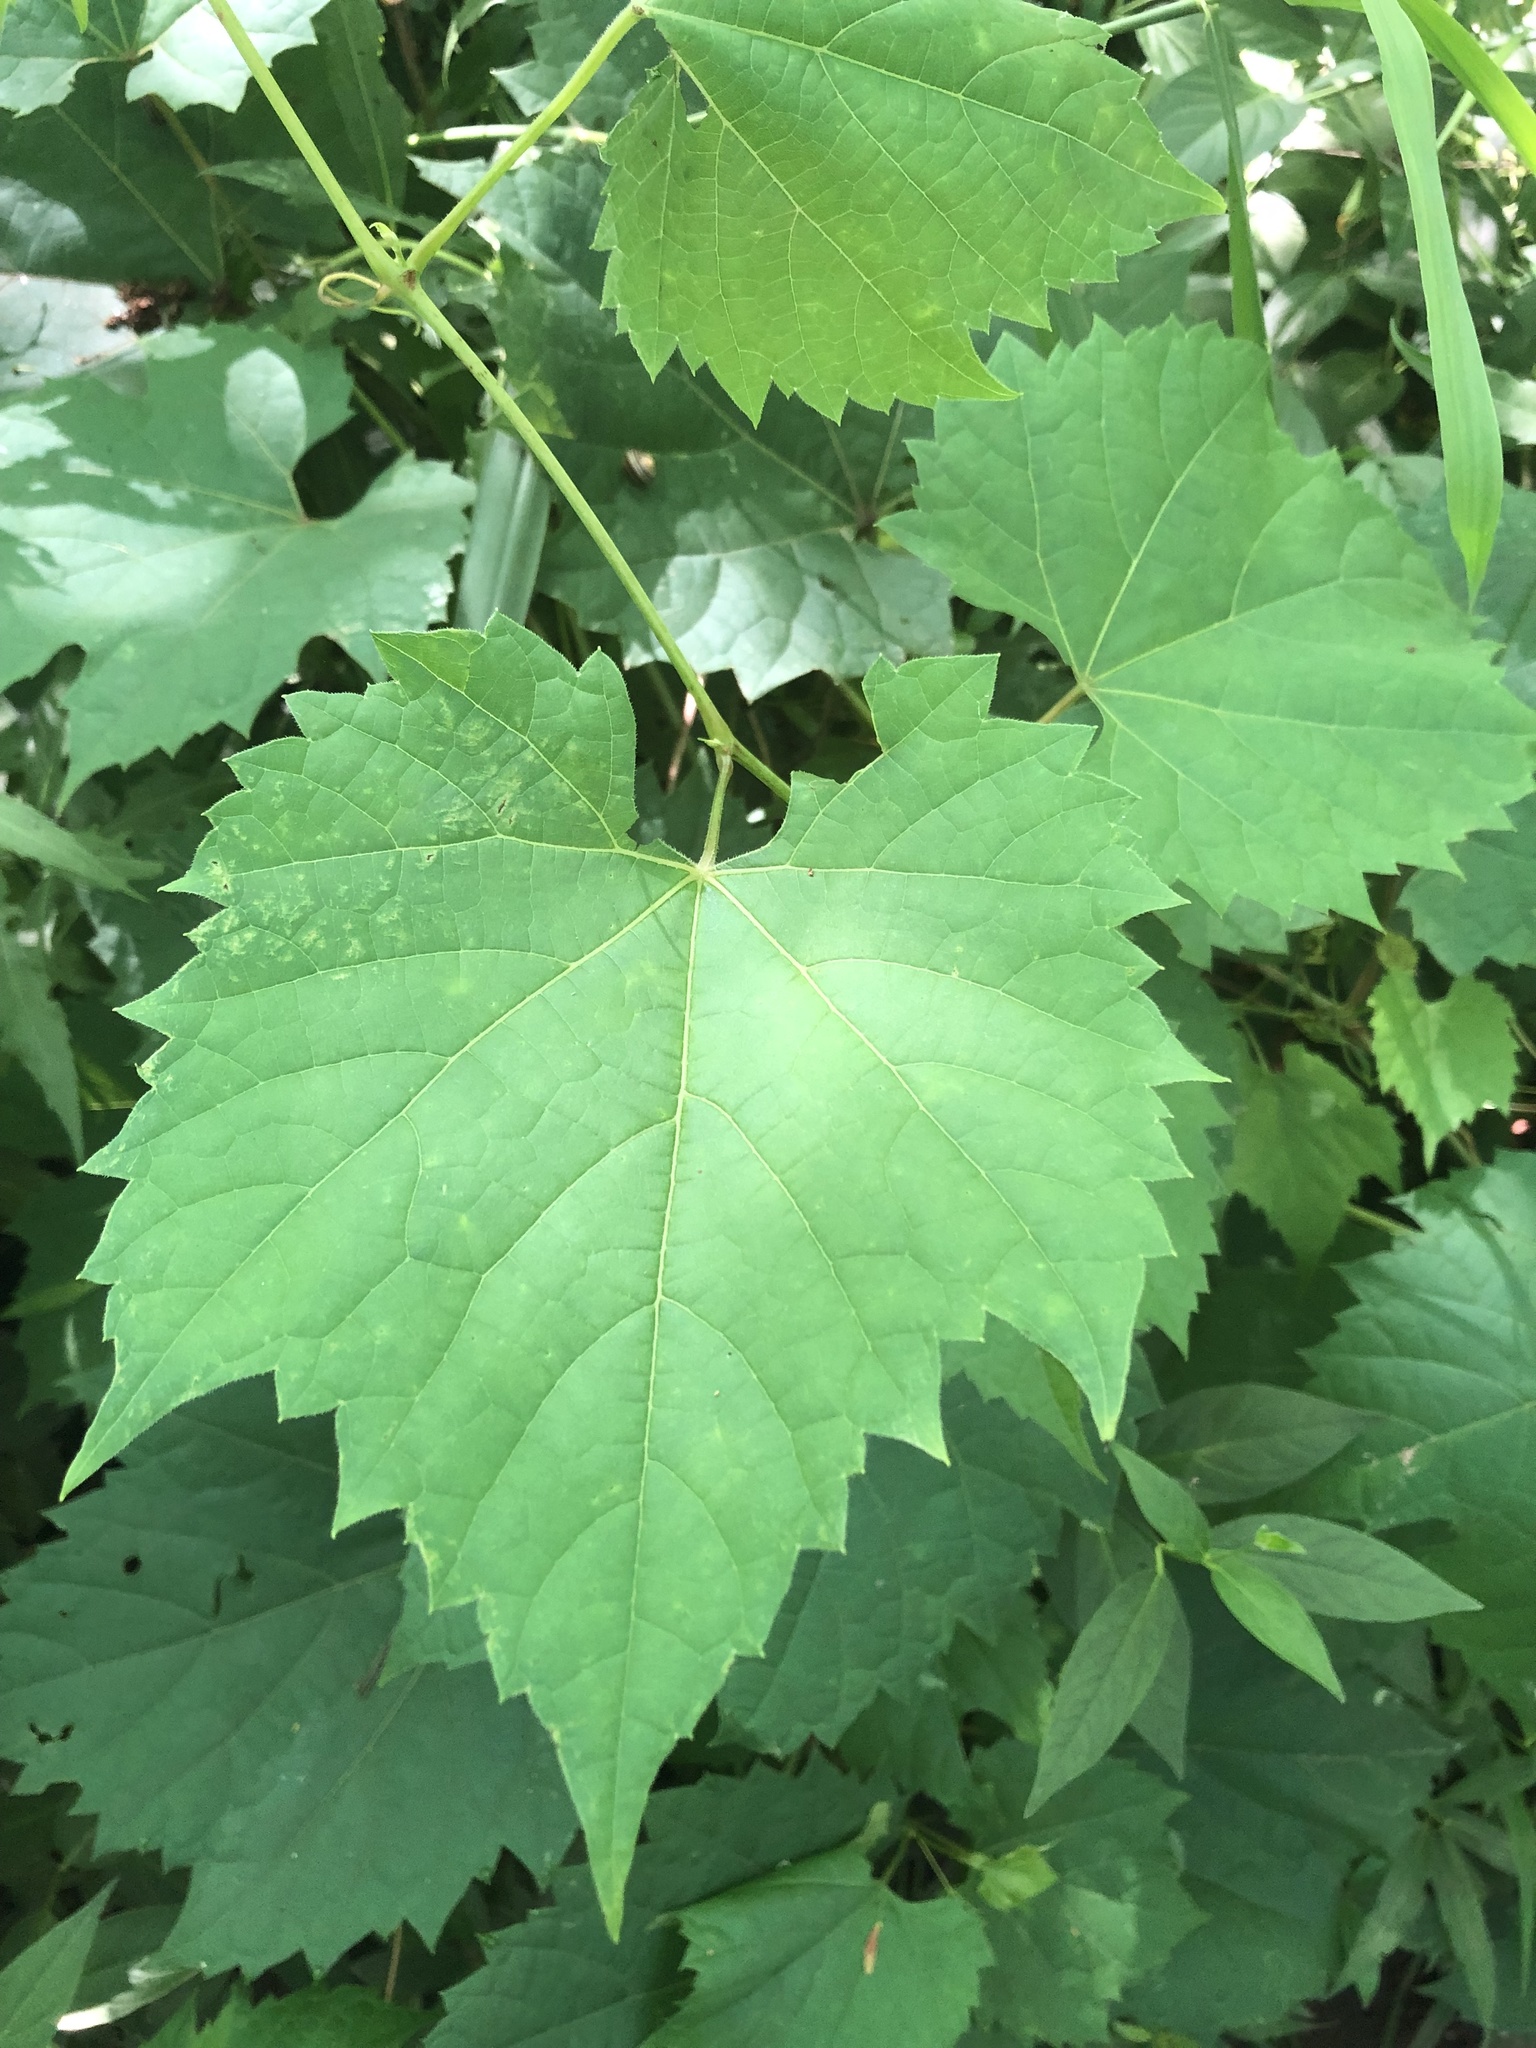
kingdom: Plantae
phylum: Tracheophyta
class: Magnoliopsida
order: Vitales
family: Vitaceae
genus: Vitis
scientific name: Vitis riparia
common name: Frost grape
